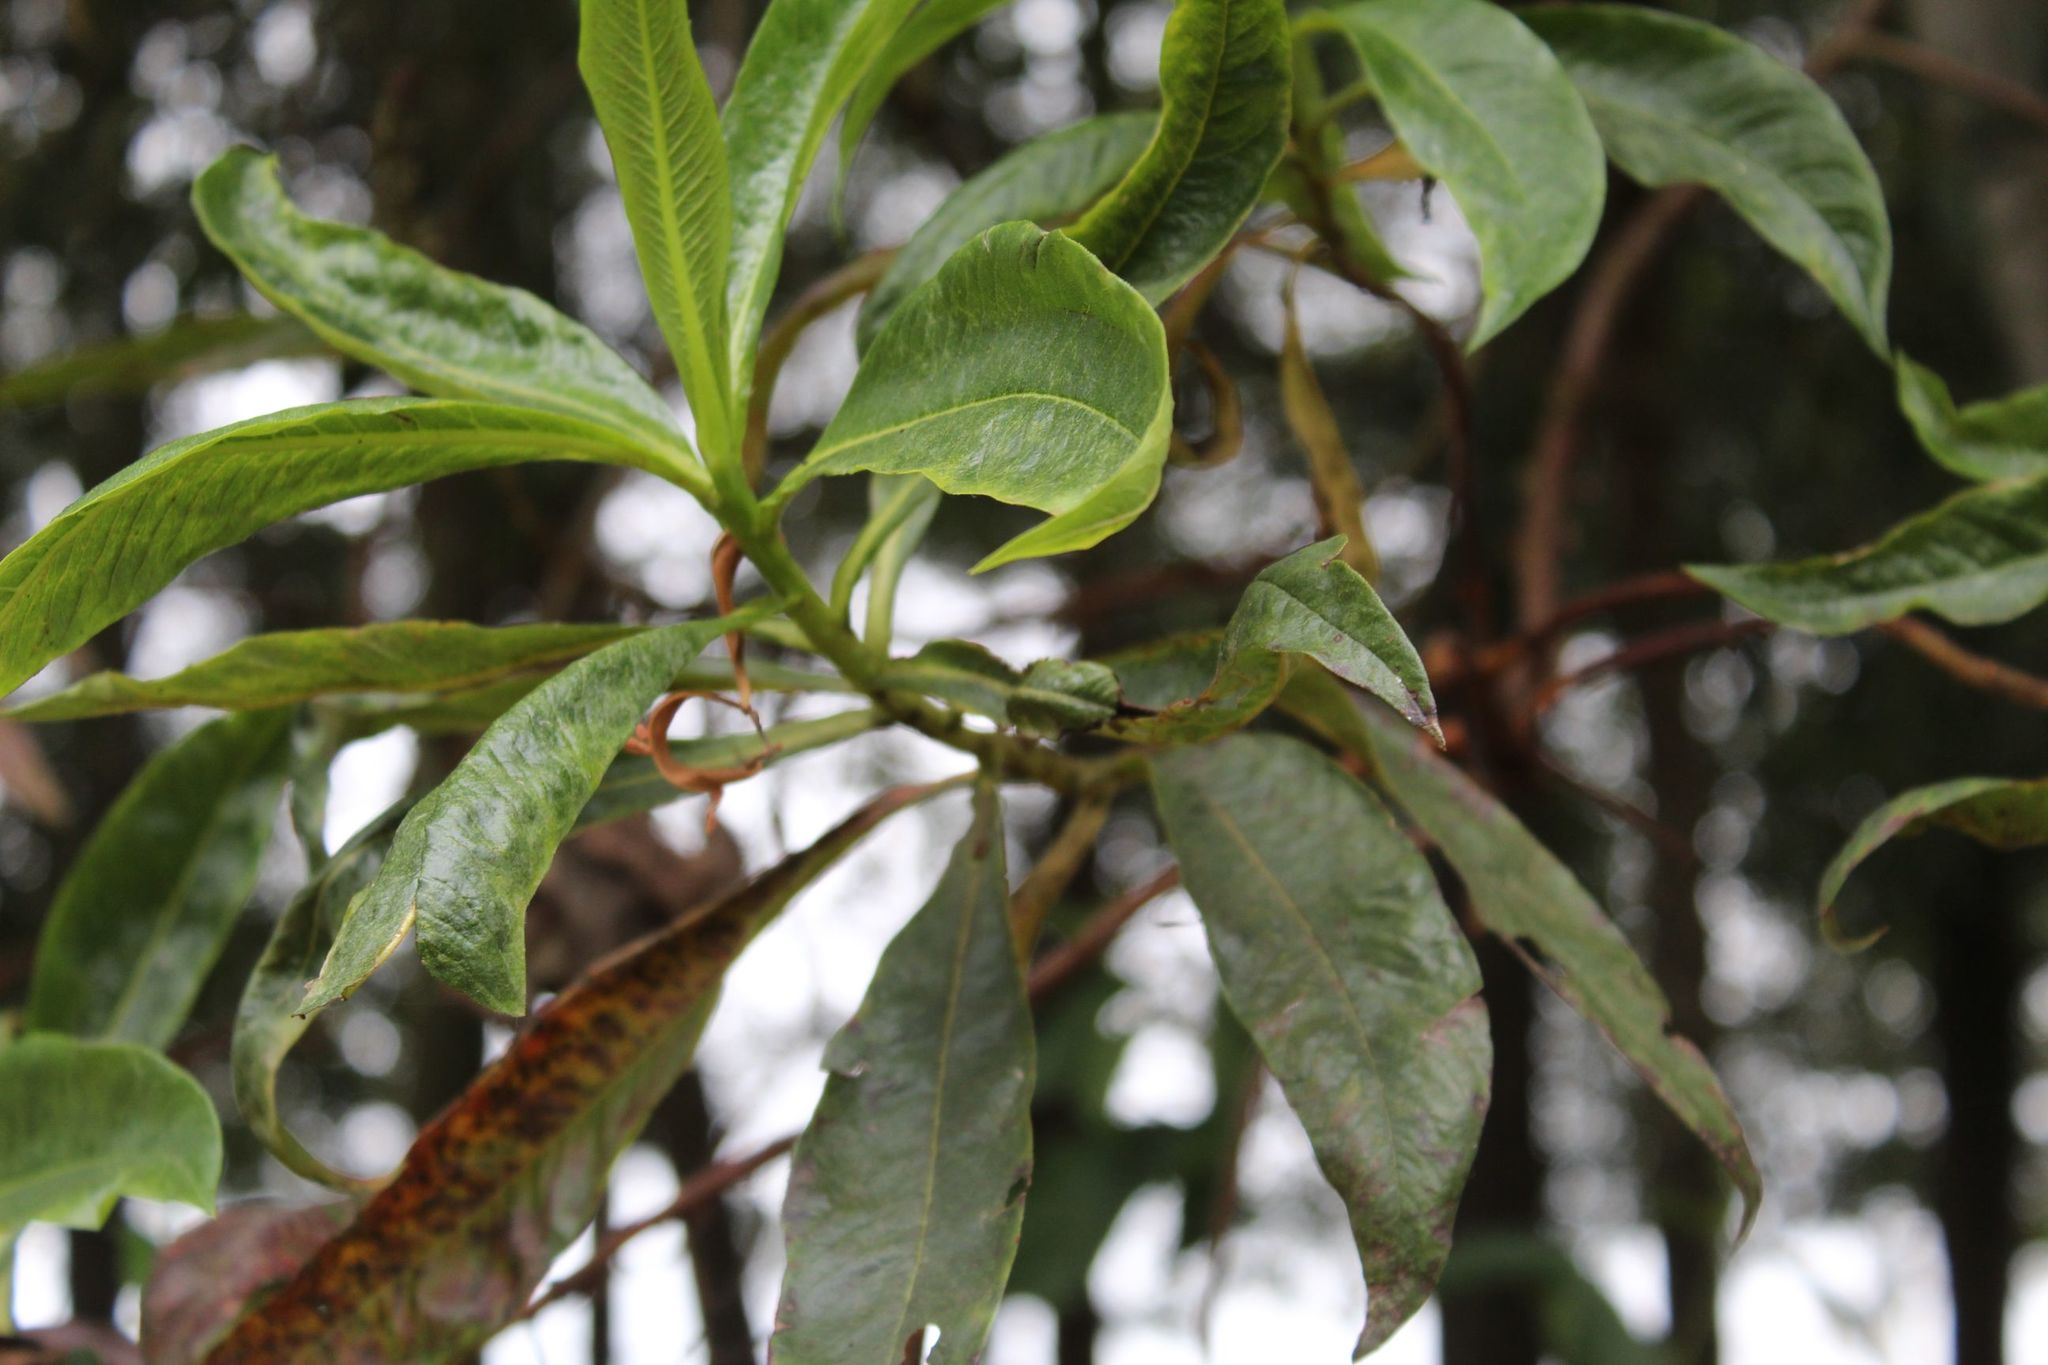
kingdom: Plantae
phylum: Tracheophyta
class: Magnoliopsida
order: Escalloniales
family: Escalloniaceae
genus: Escallonia
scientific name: Escallonia pendula
